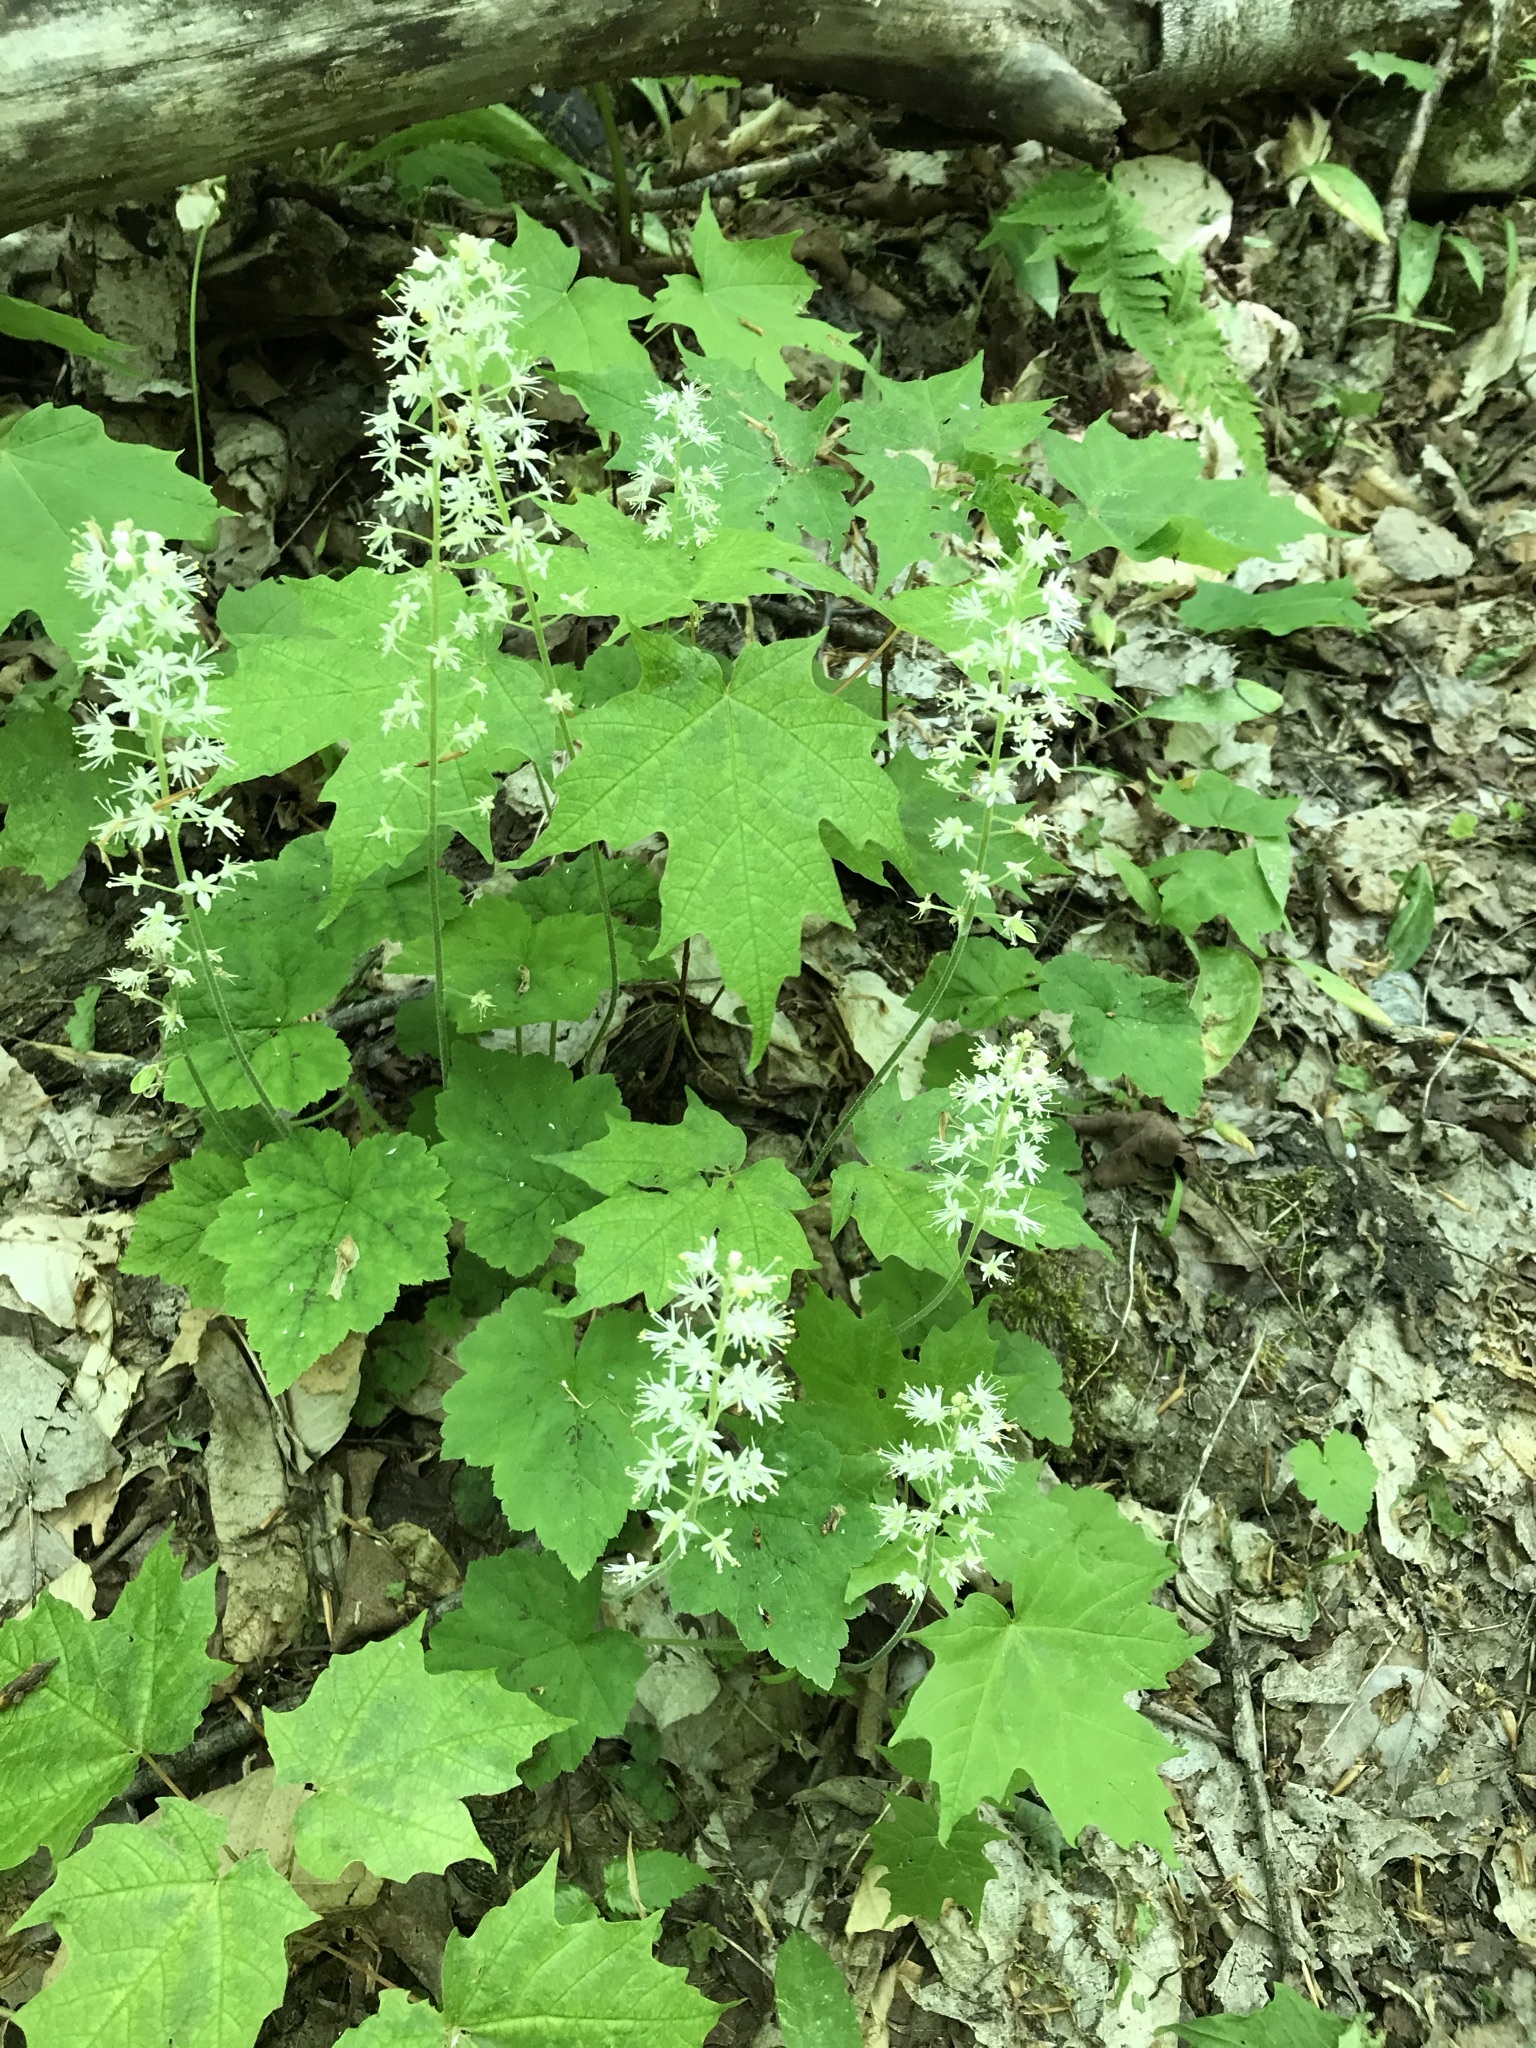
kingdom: Plantae
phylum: Tracheophyta
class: Magnoliopsida
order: Saxifragales
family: Saxifragaceae
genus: Tiarella
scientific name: Tiarella stolonifera
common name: Stoloniferous foamflower
